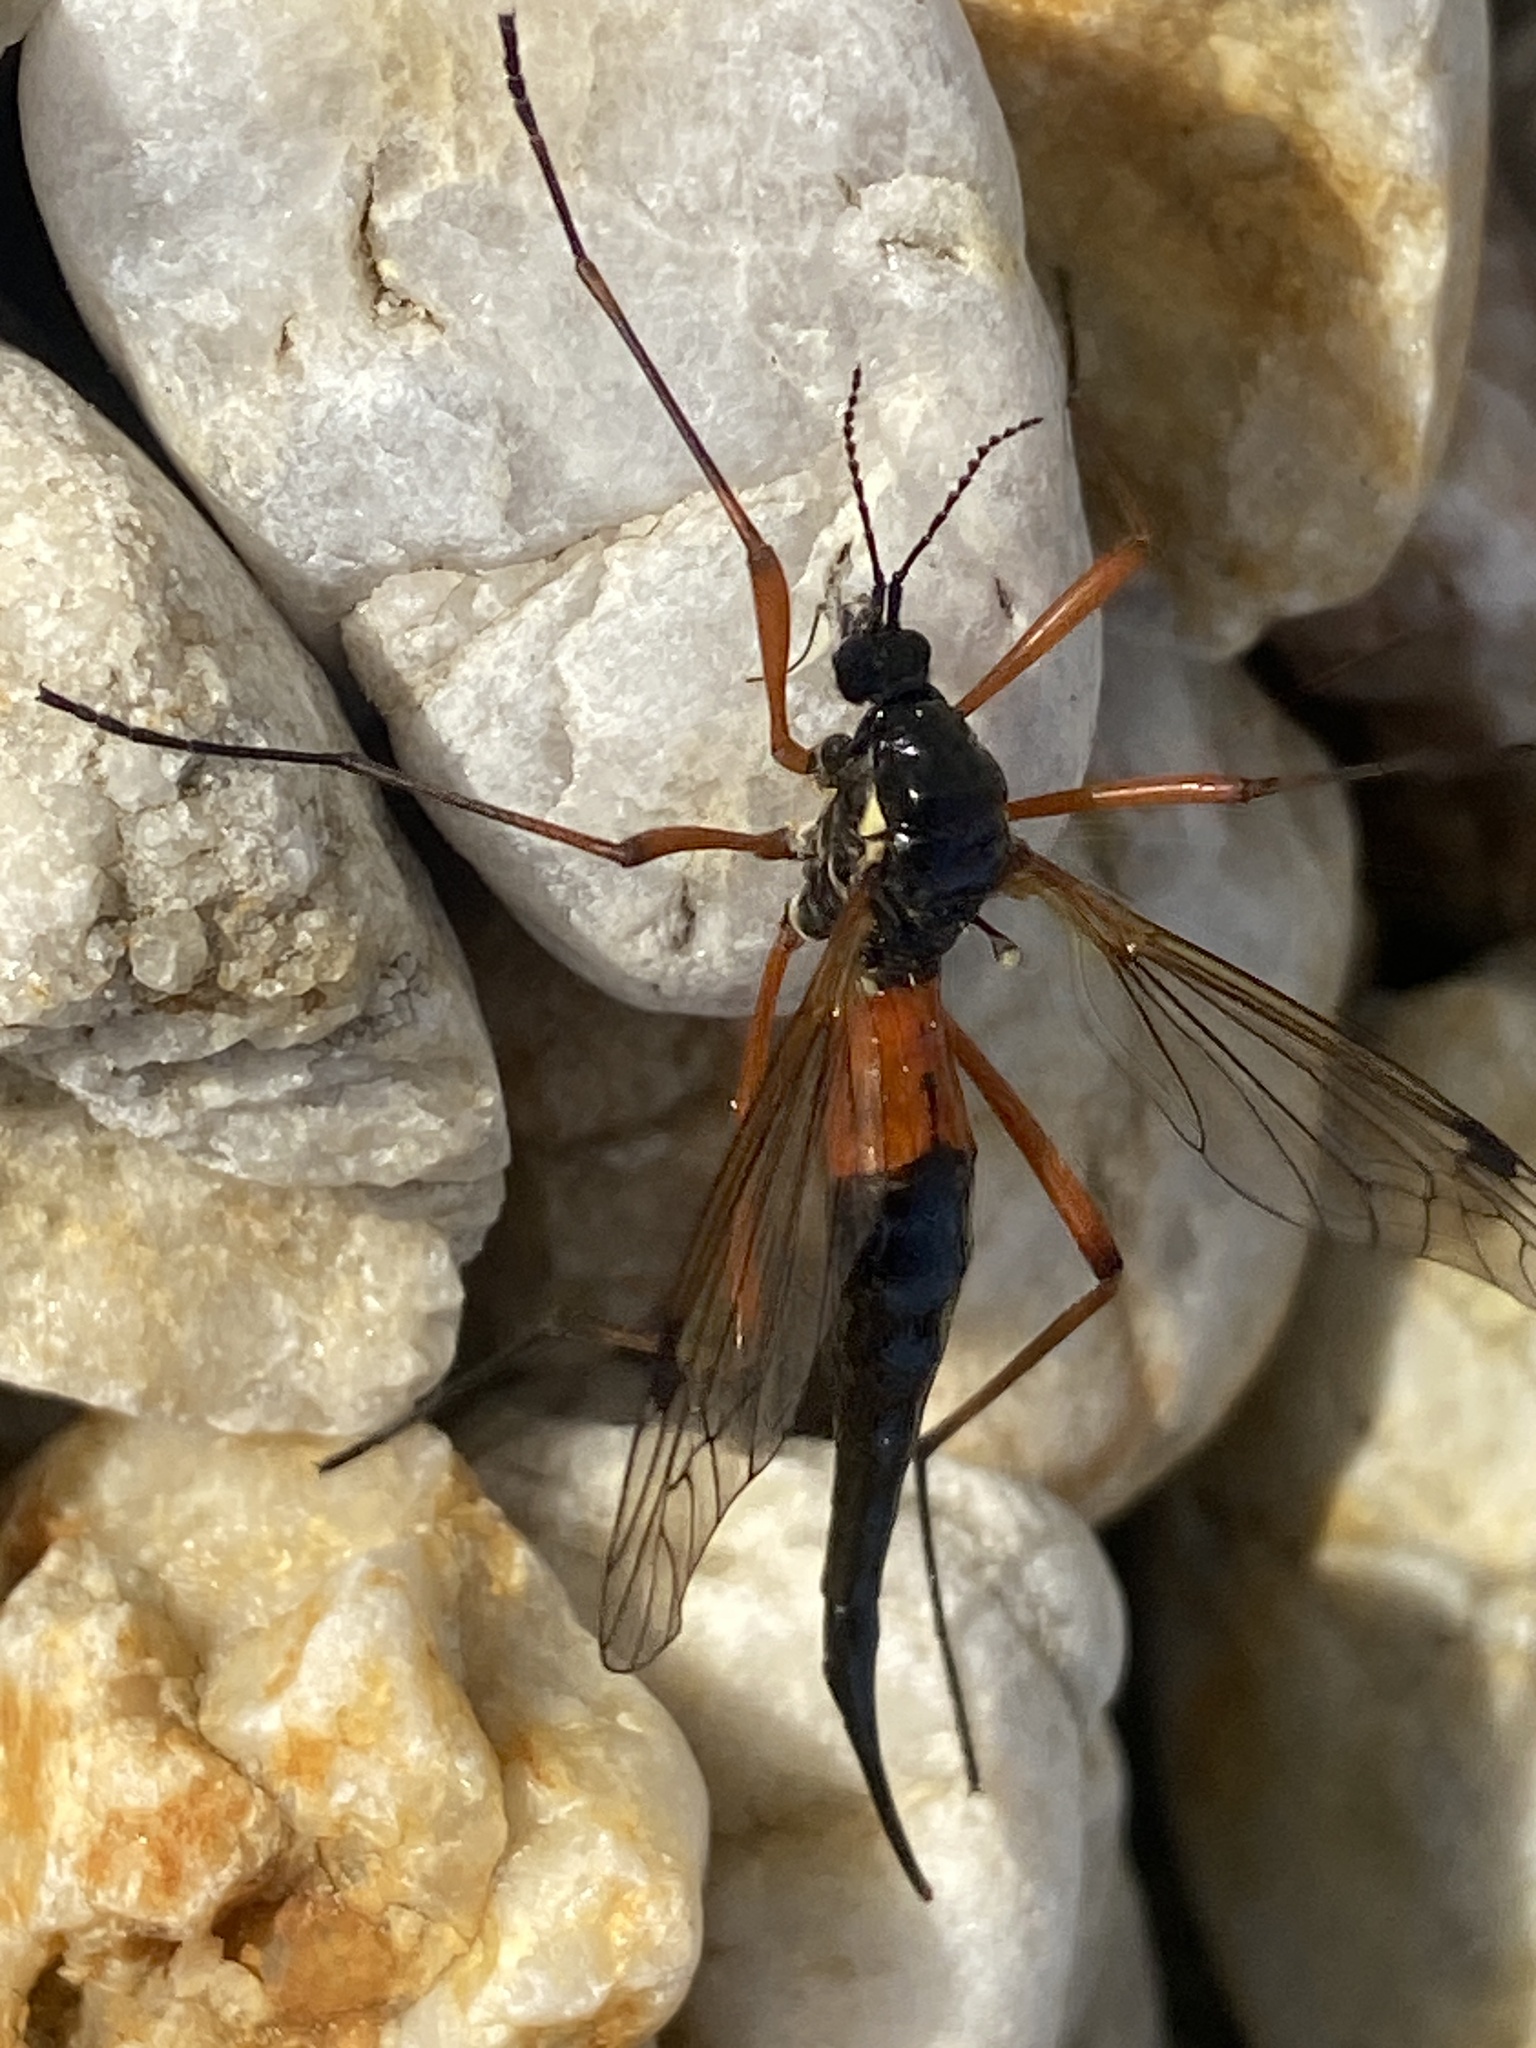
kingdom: Animalia
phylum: Arthropoda
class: Insecta
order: Diptera
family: Tipulidae
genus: Tanyptera
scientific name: Tanyptera atrata
